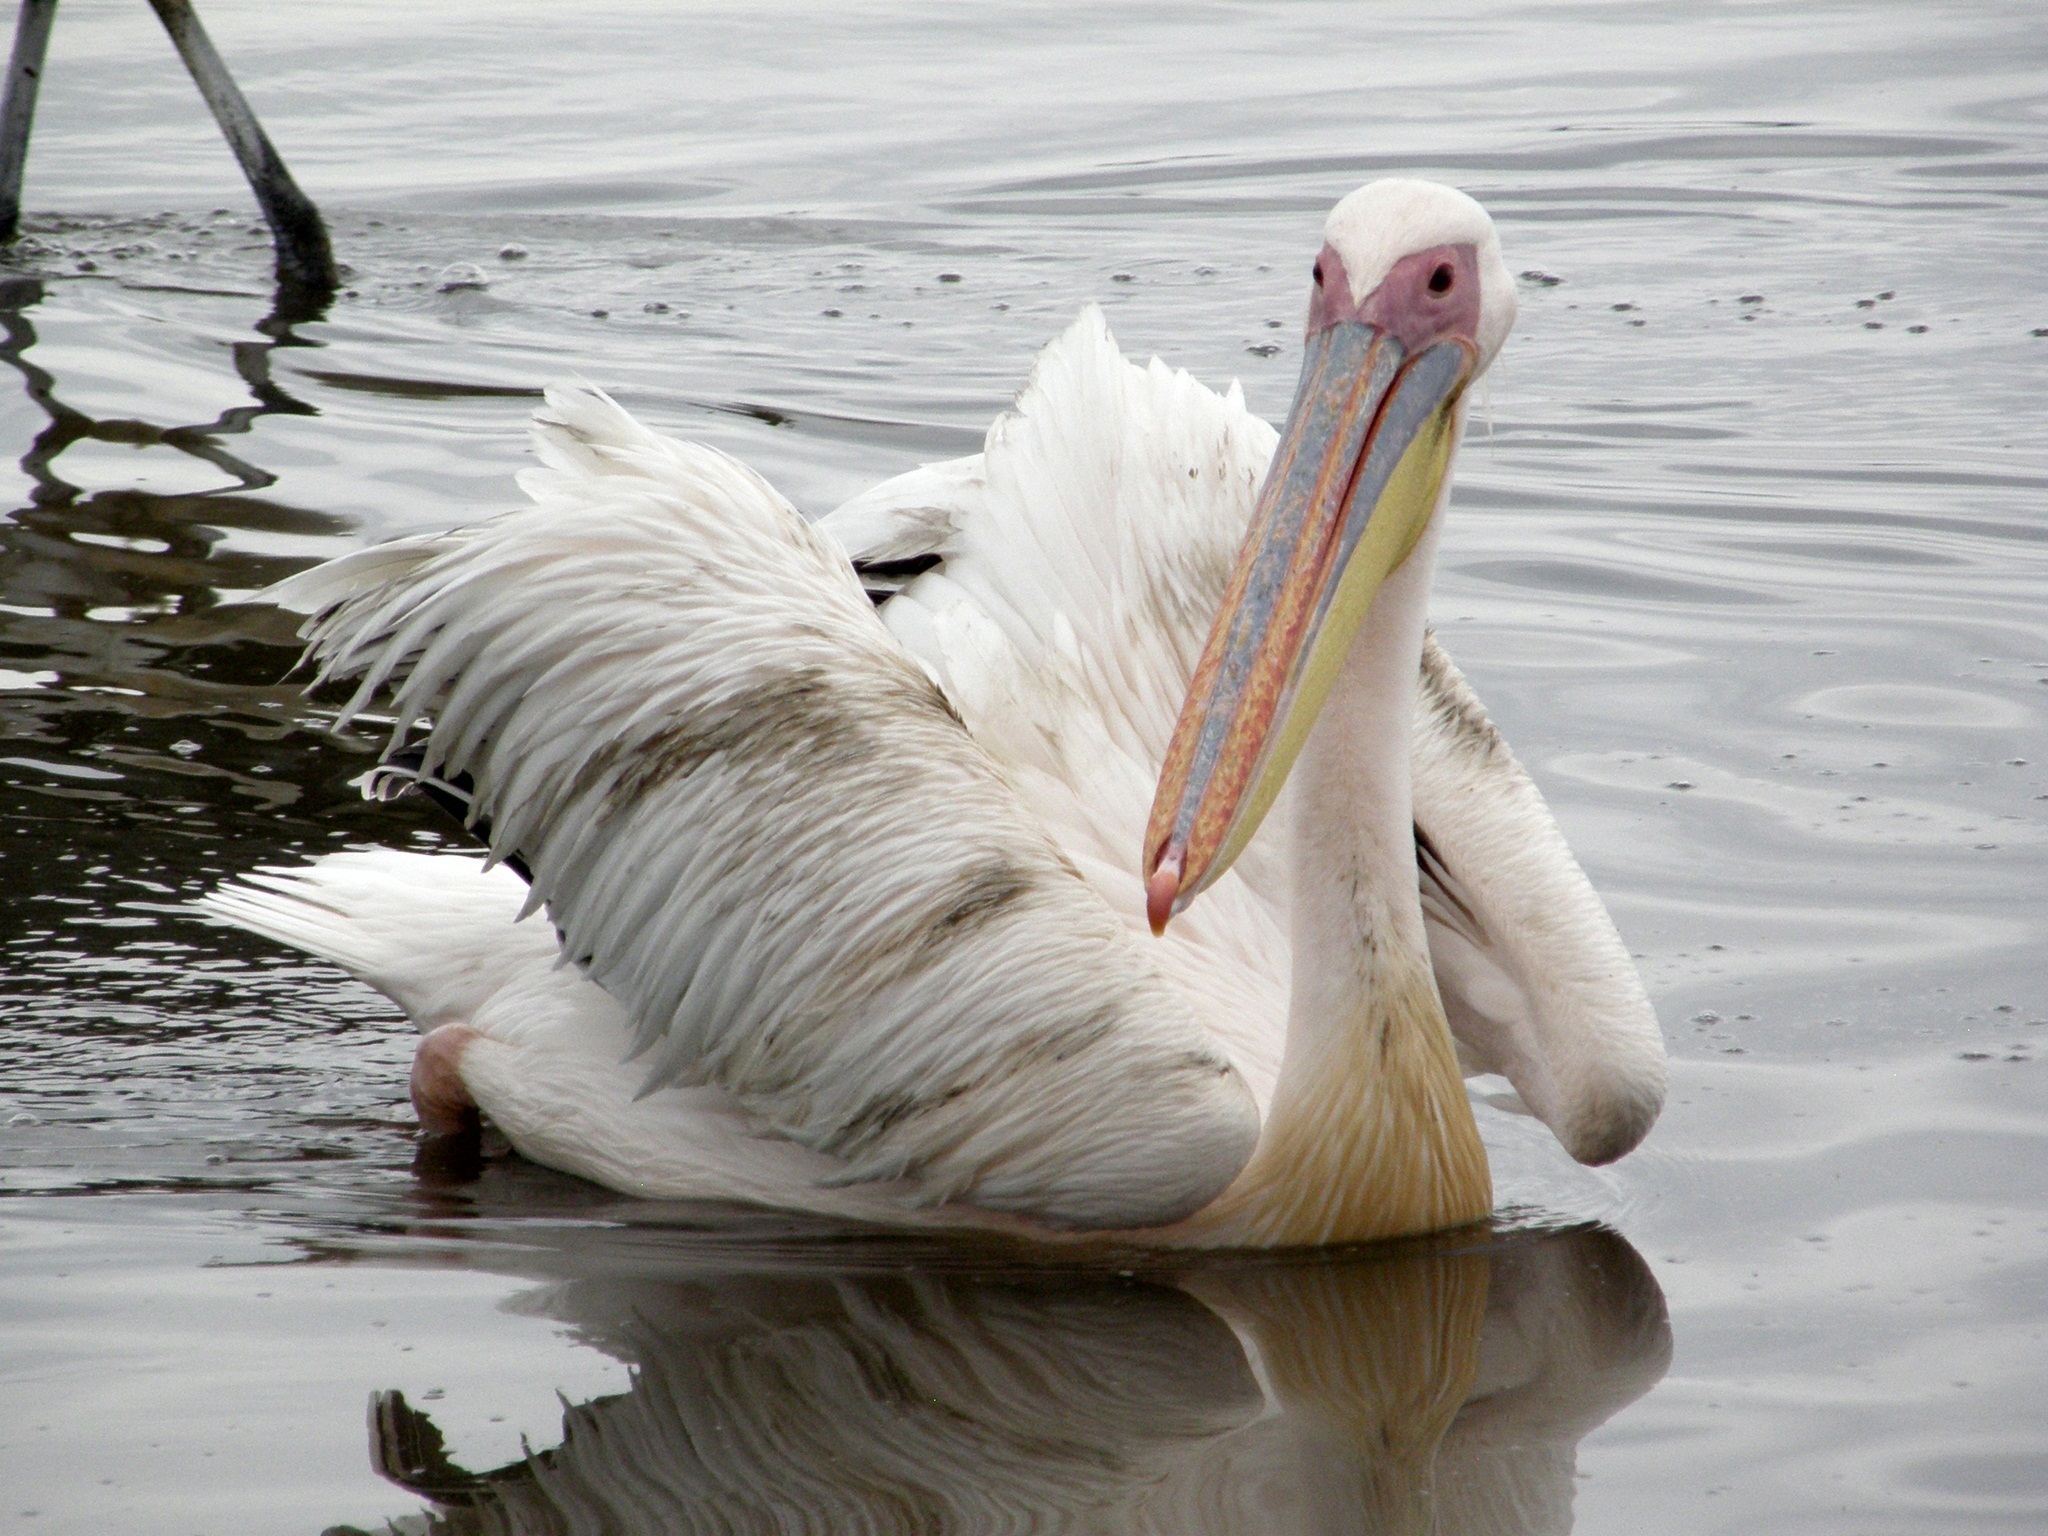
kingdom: Animalia
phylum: Chordata
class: Aves
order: Pelecaniformes
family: Pelecanidae
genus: Pelecanus
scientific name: Pelecanus onocrotalus
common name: Great white pelican
